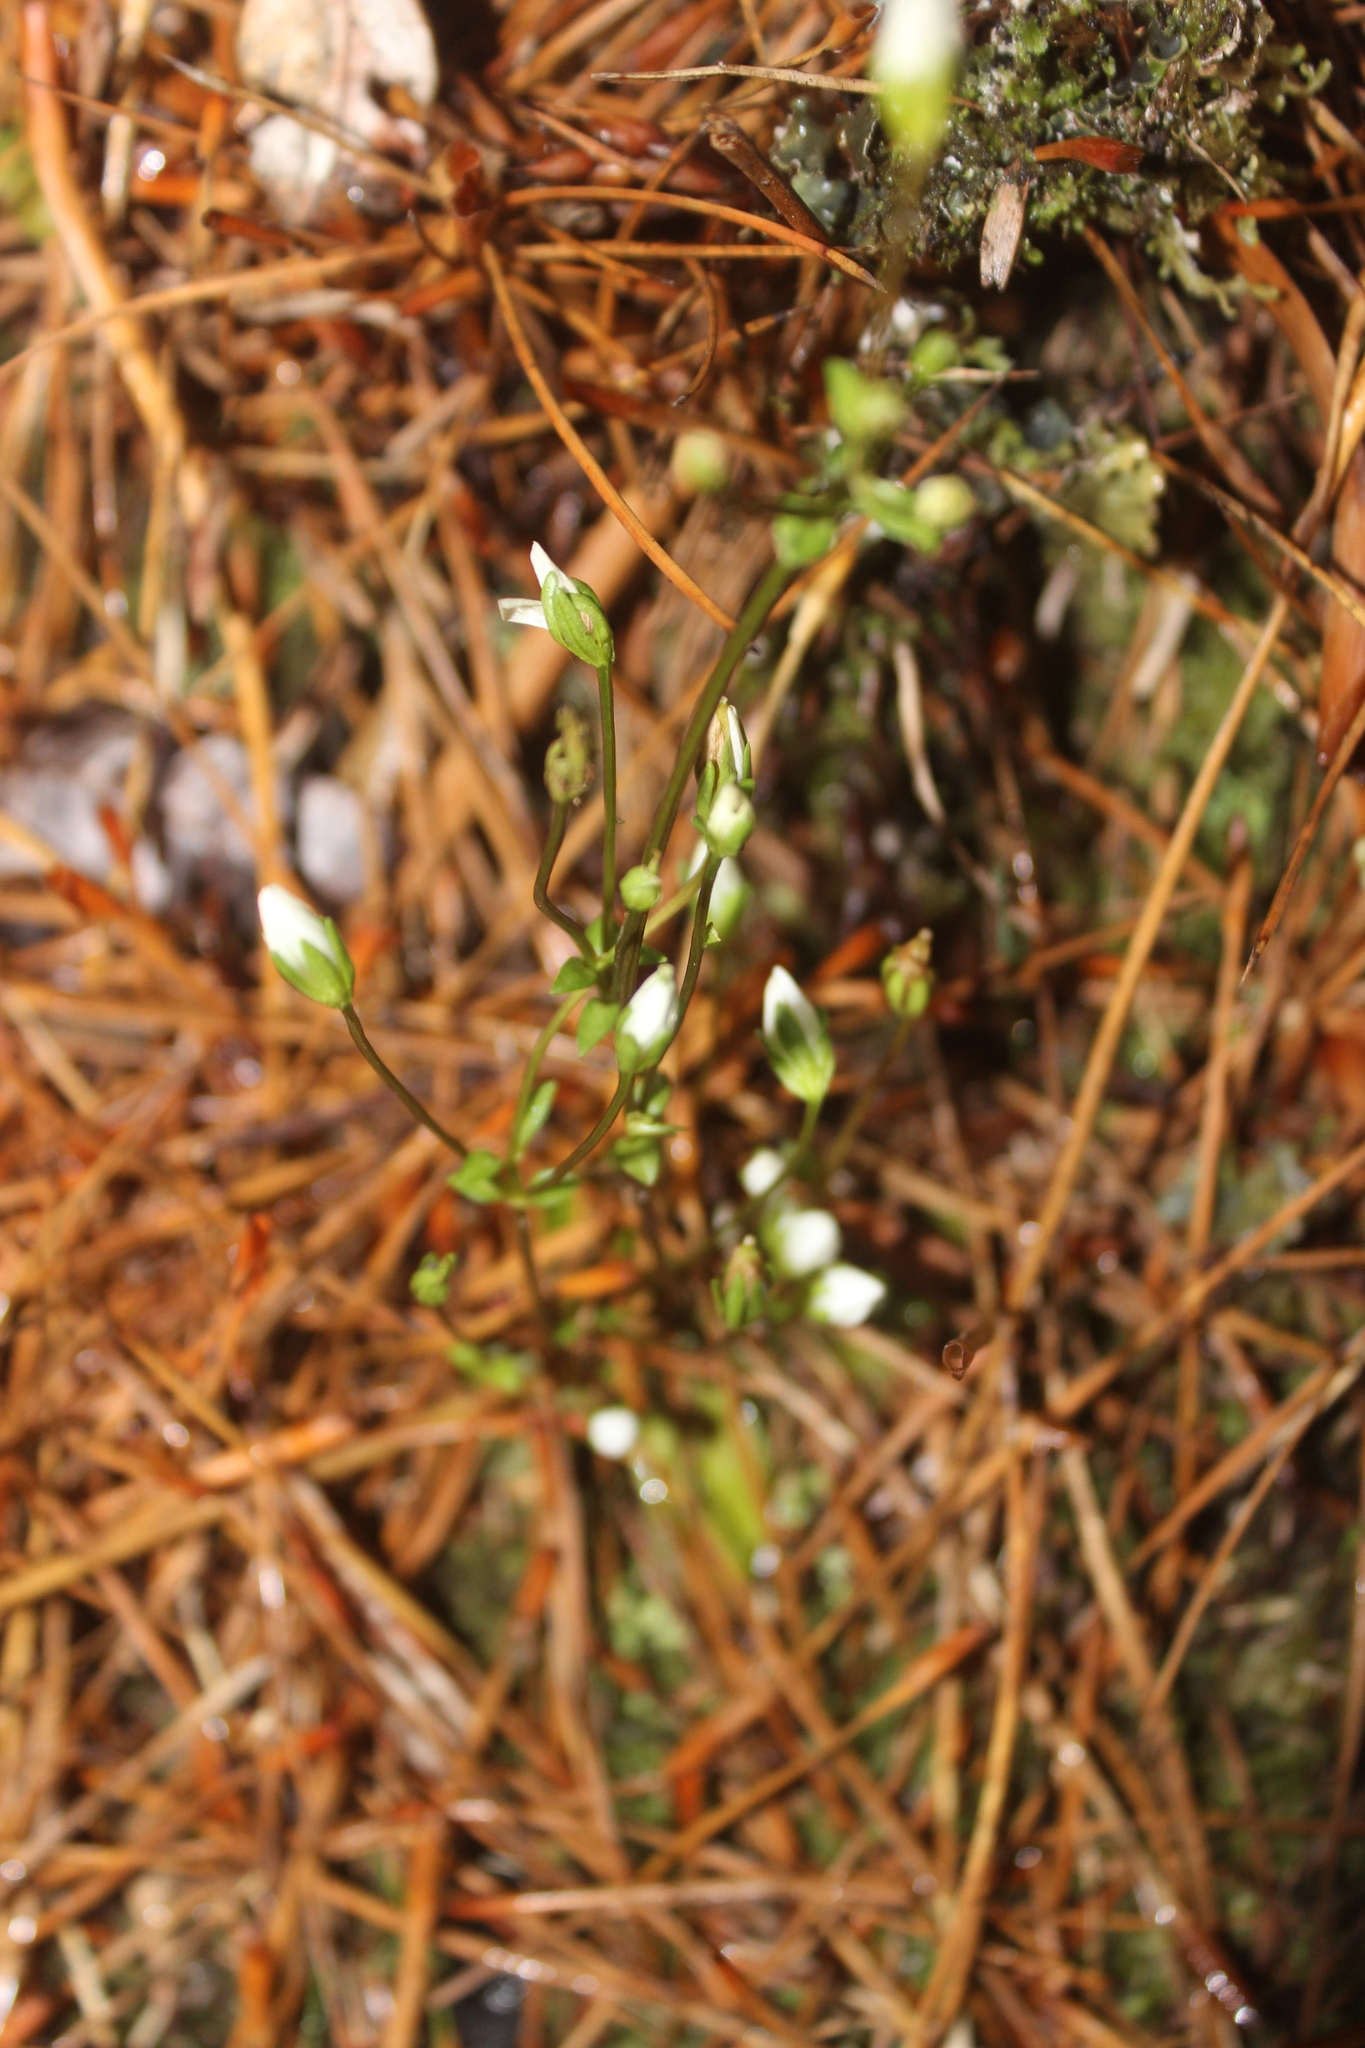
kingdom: Plantae
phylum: Tracheophyta
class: Magnoliopsida
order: Gentianales
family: Gentianaceae
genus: Gentianella
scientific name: Gentianella chathamica
